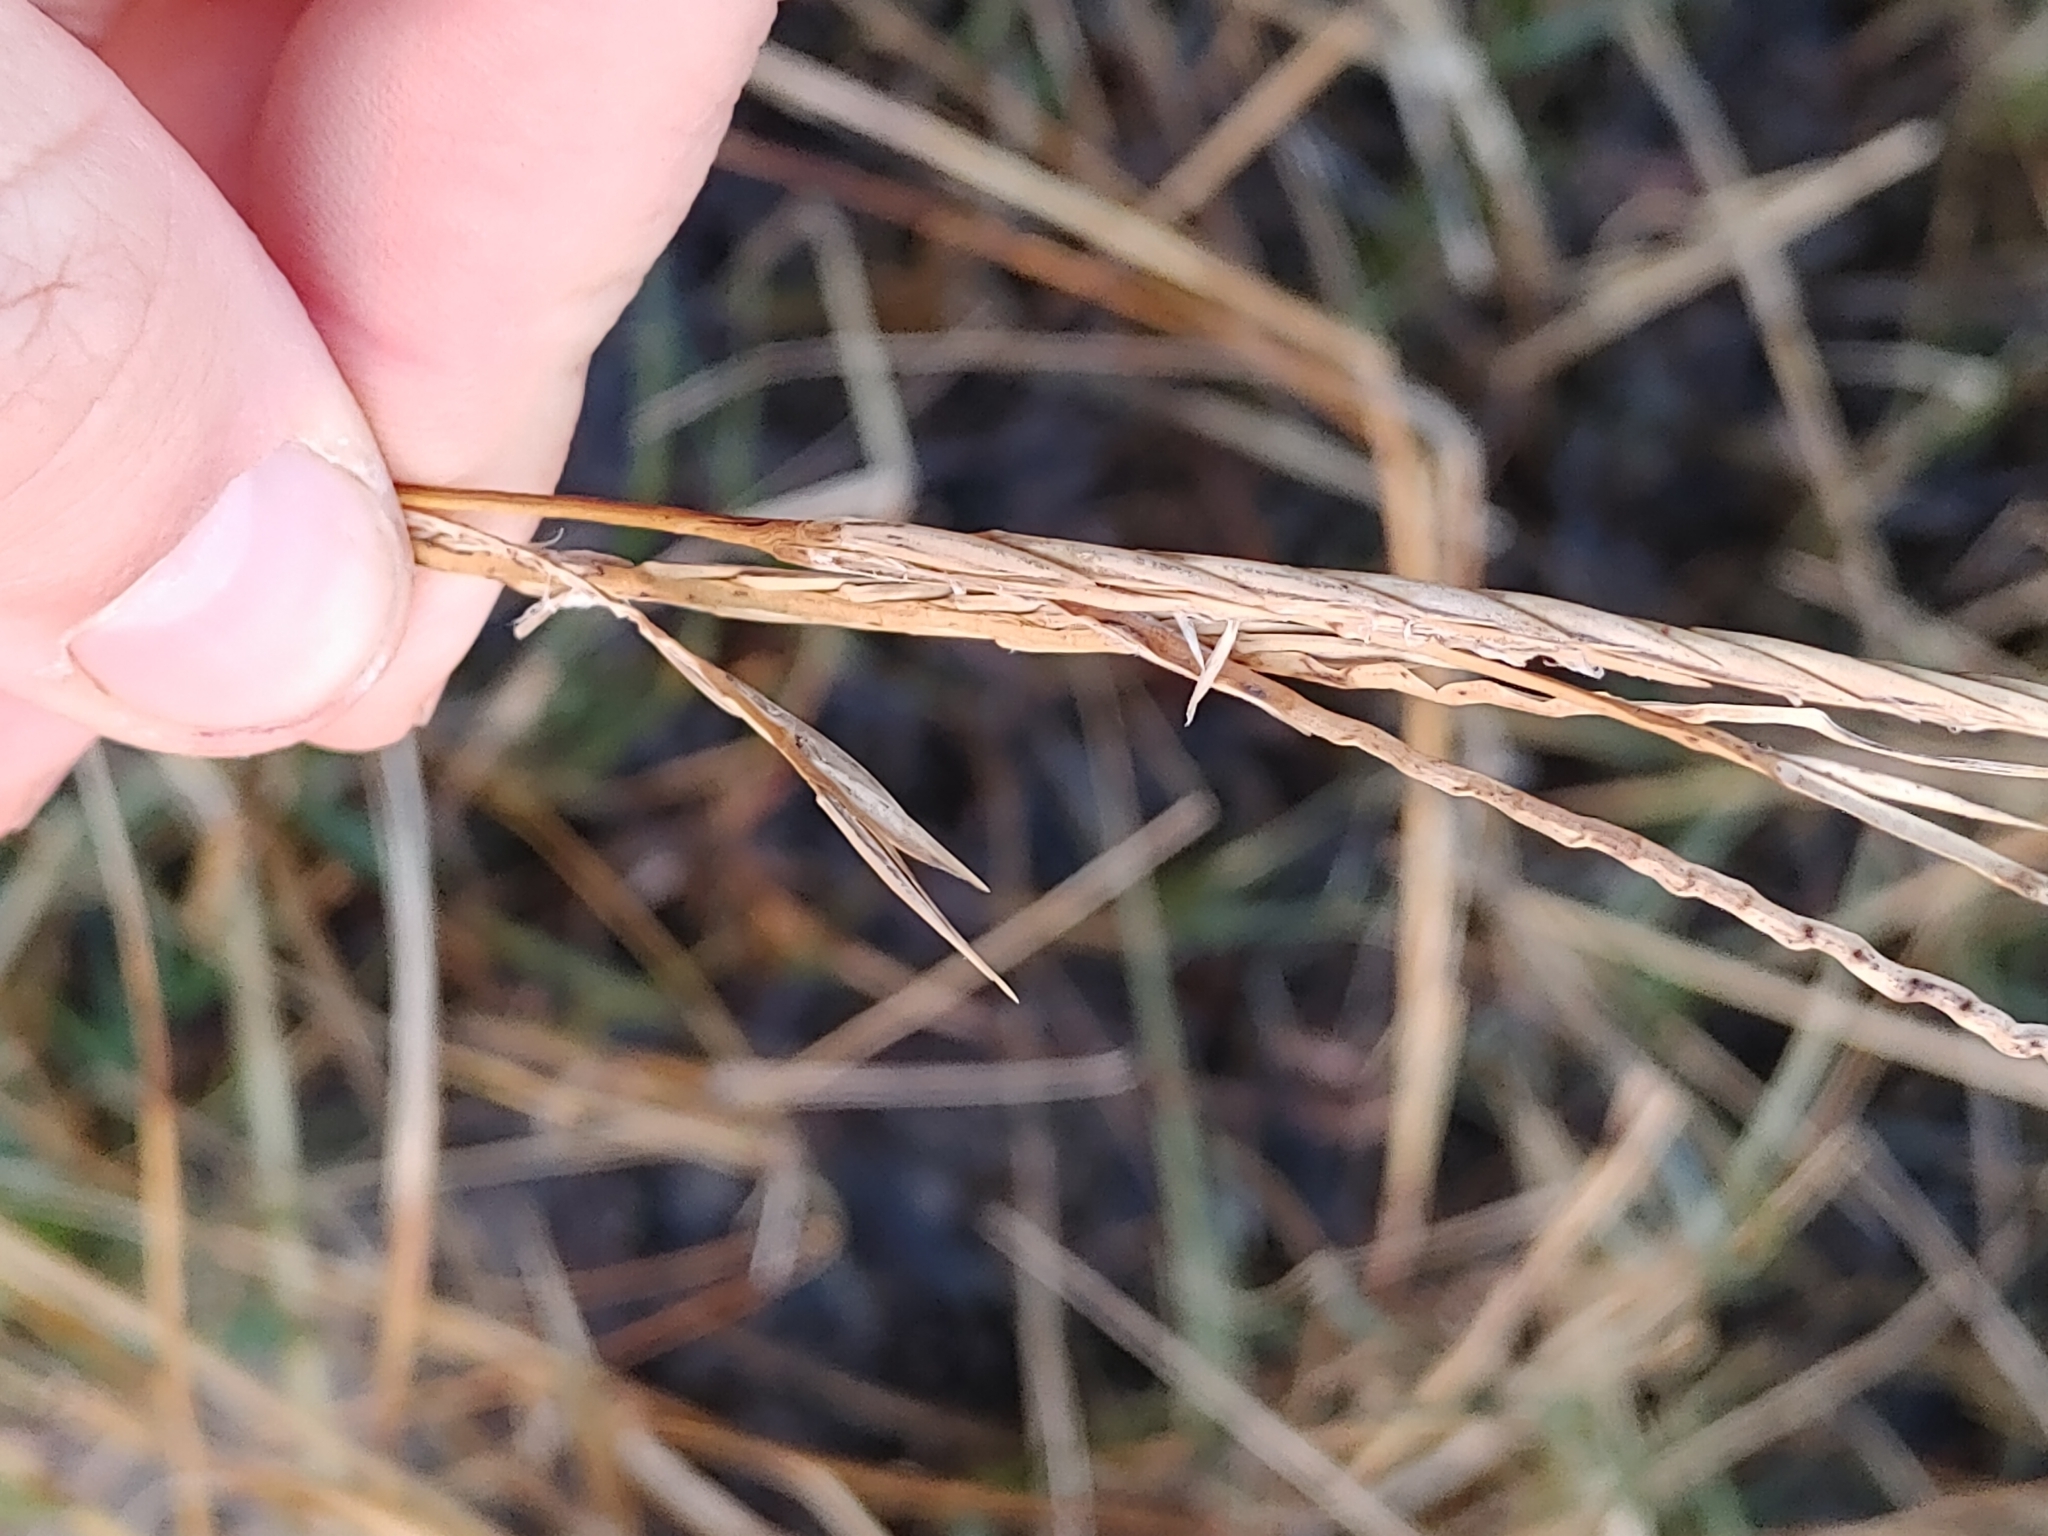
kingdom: Plantae
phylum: Tracheophyta
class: Liliopsida
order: Poales
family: Poaceae
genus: Sporobolus
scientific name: Sporobolus alterniflorus
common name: Atlantic cordgrass
